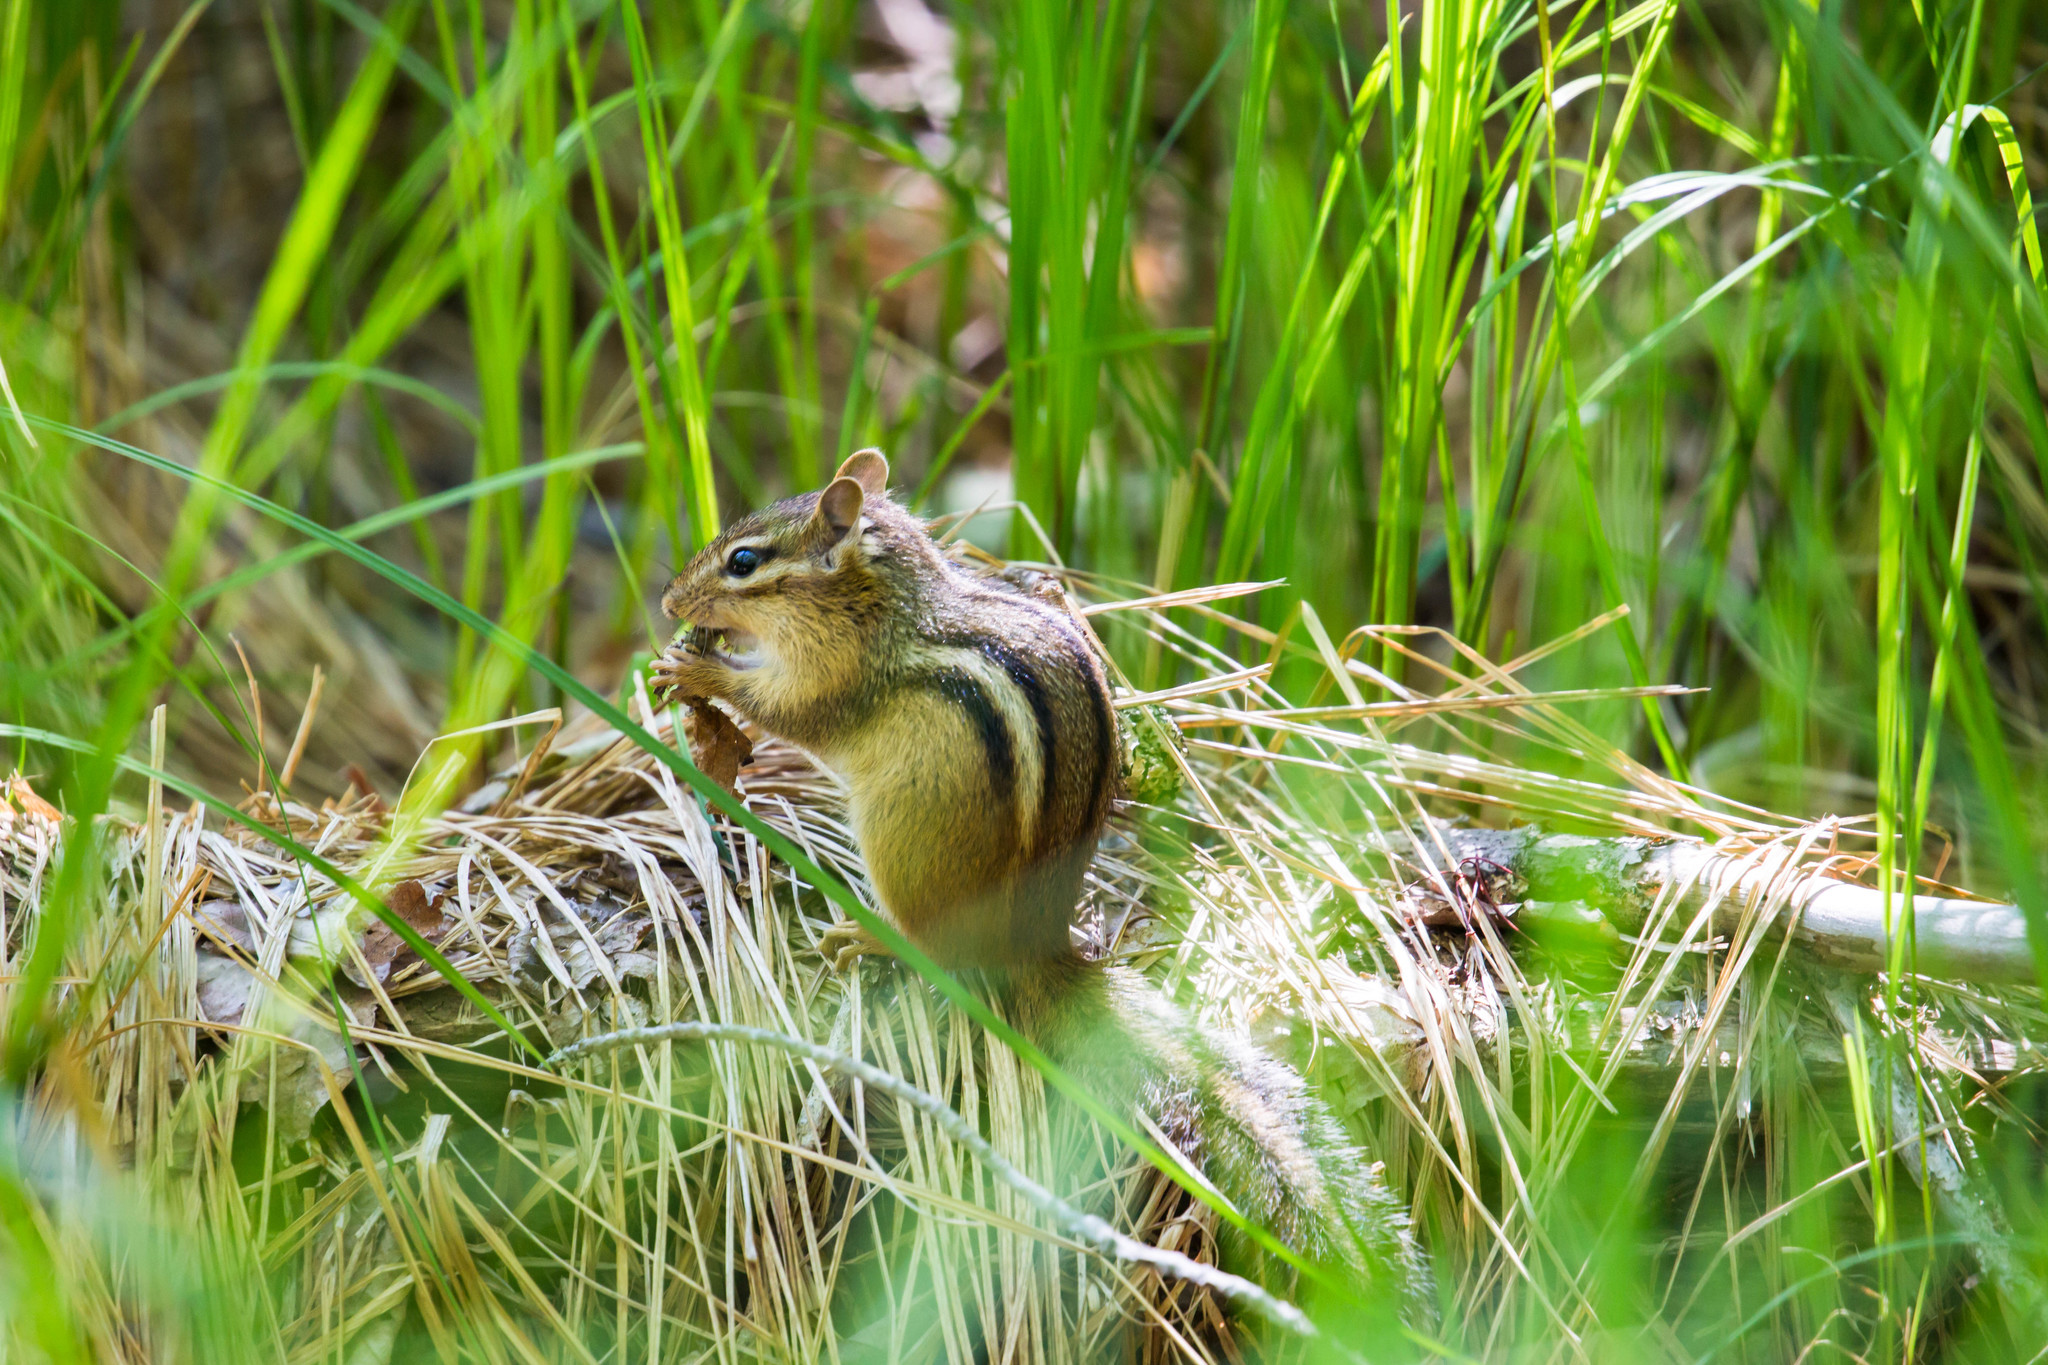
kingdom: Animalia
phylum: Chordata
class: Mammalia
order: Rodentia
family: Sciuridae
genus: Tamias
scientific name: Tamias striatus
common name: Eastern chipmunk
